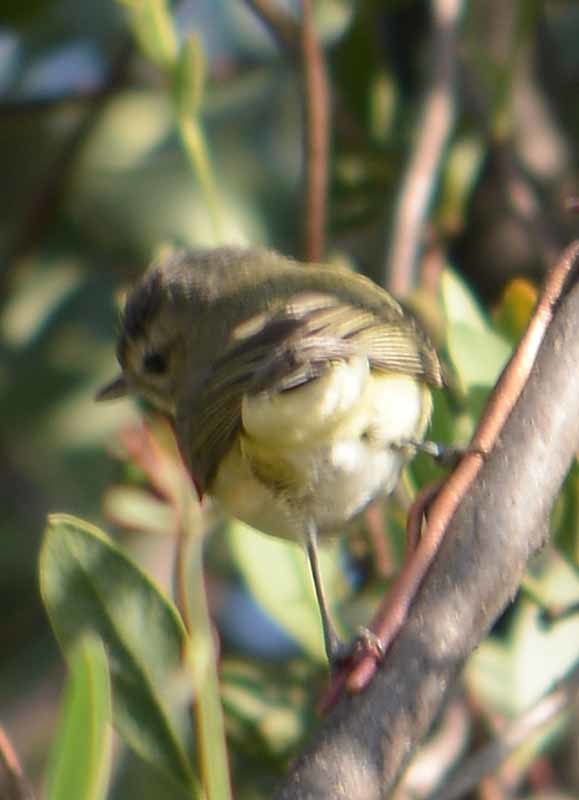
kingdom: Animalia
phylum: Chordata
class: Aves
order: Passeriformes
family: Vireonidae
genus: Vireo
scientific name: Vireo gilvus
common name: Warbling vireo
